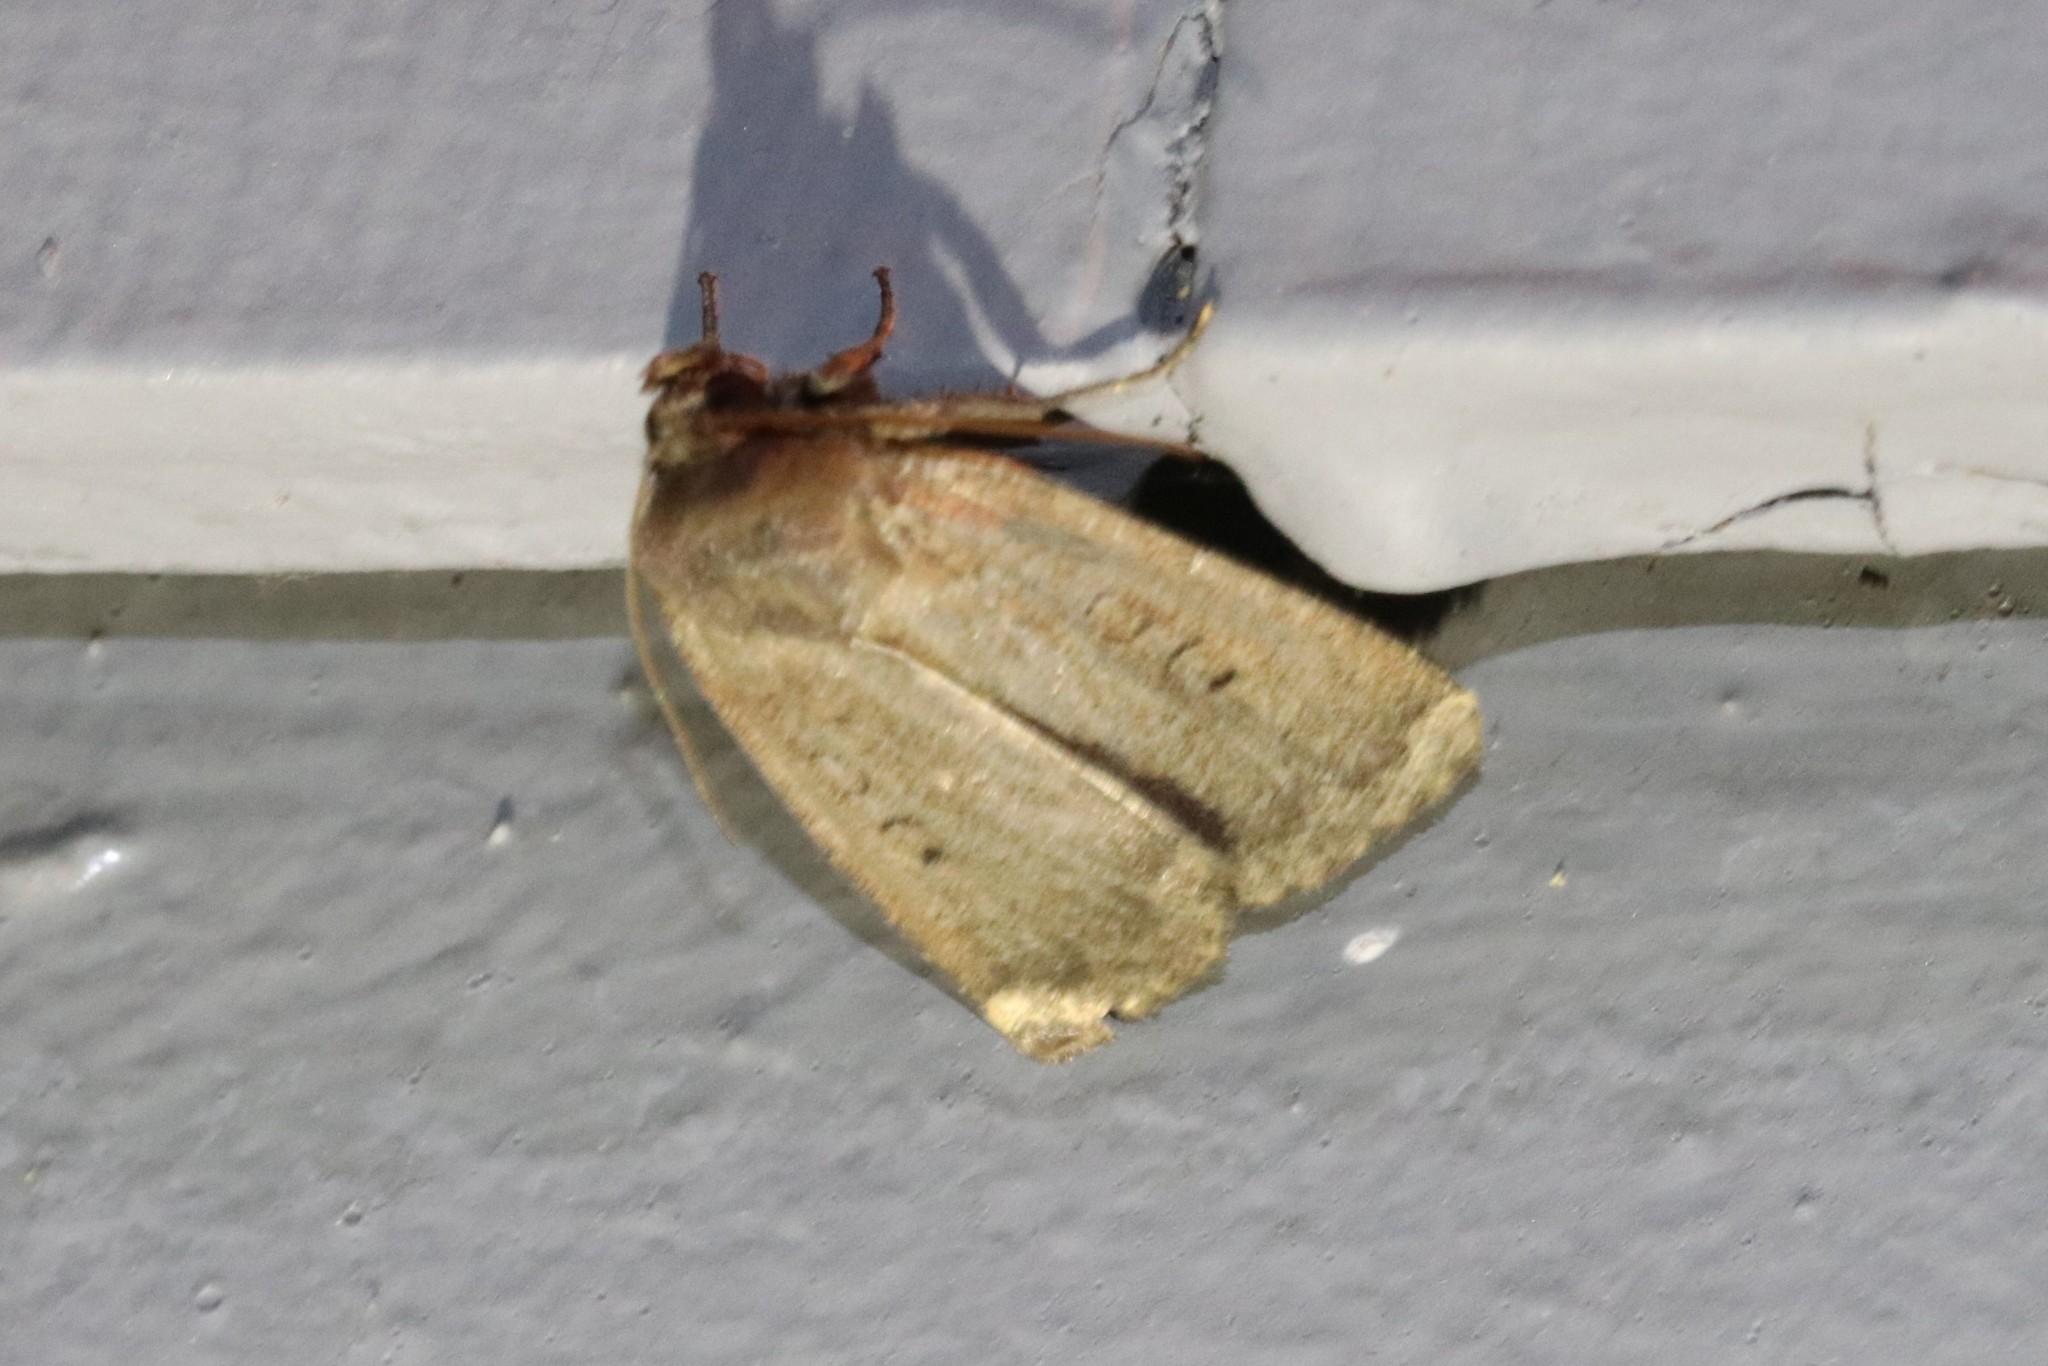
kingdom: Animalia
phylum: Arthropoda
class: Insecta
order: Lepidoptera
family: Noctuidae
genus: Graphiphora
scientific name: Graphiphora augur
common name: Double dart
